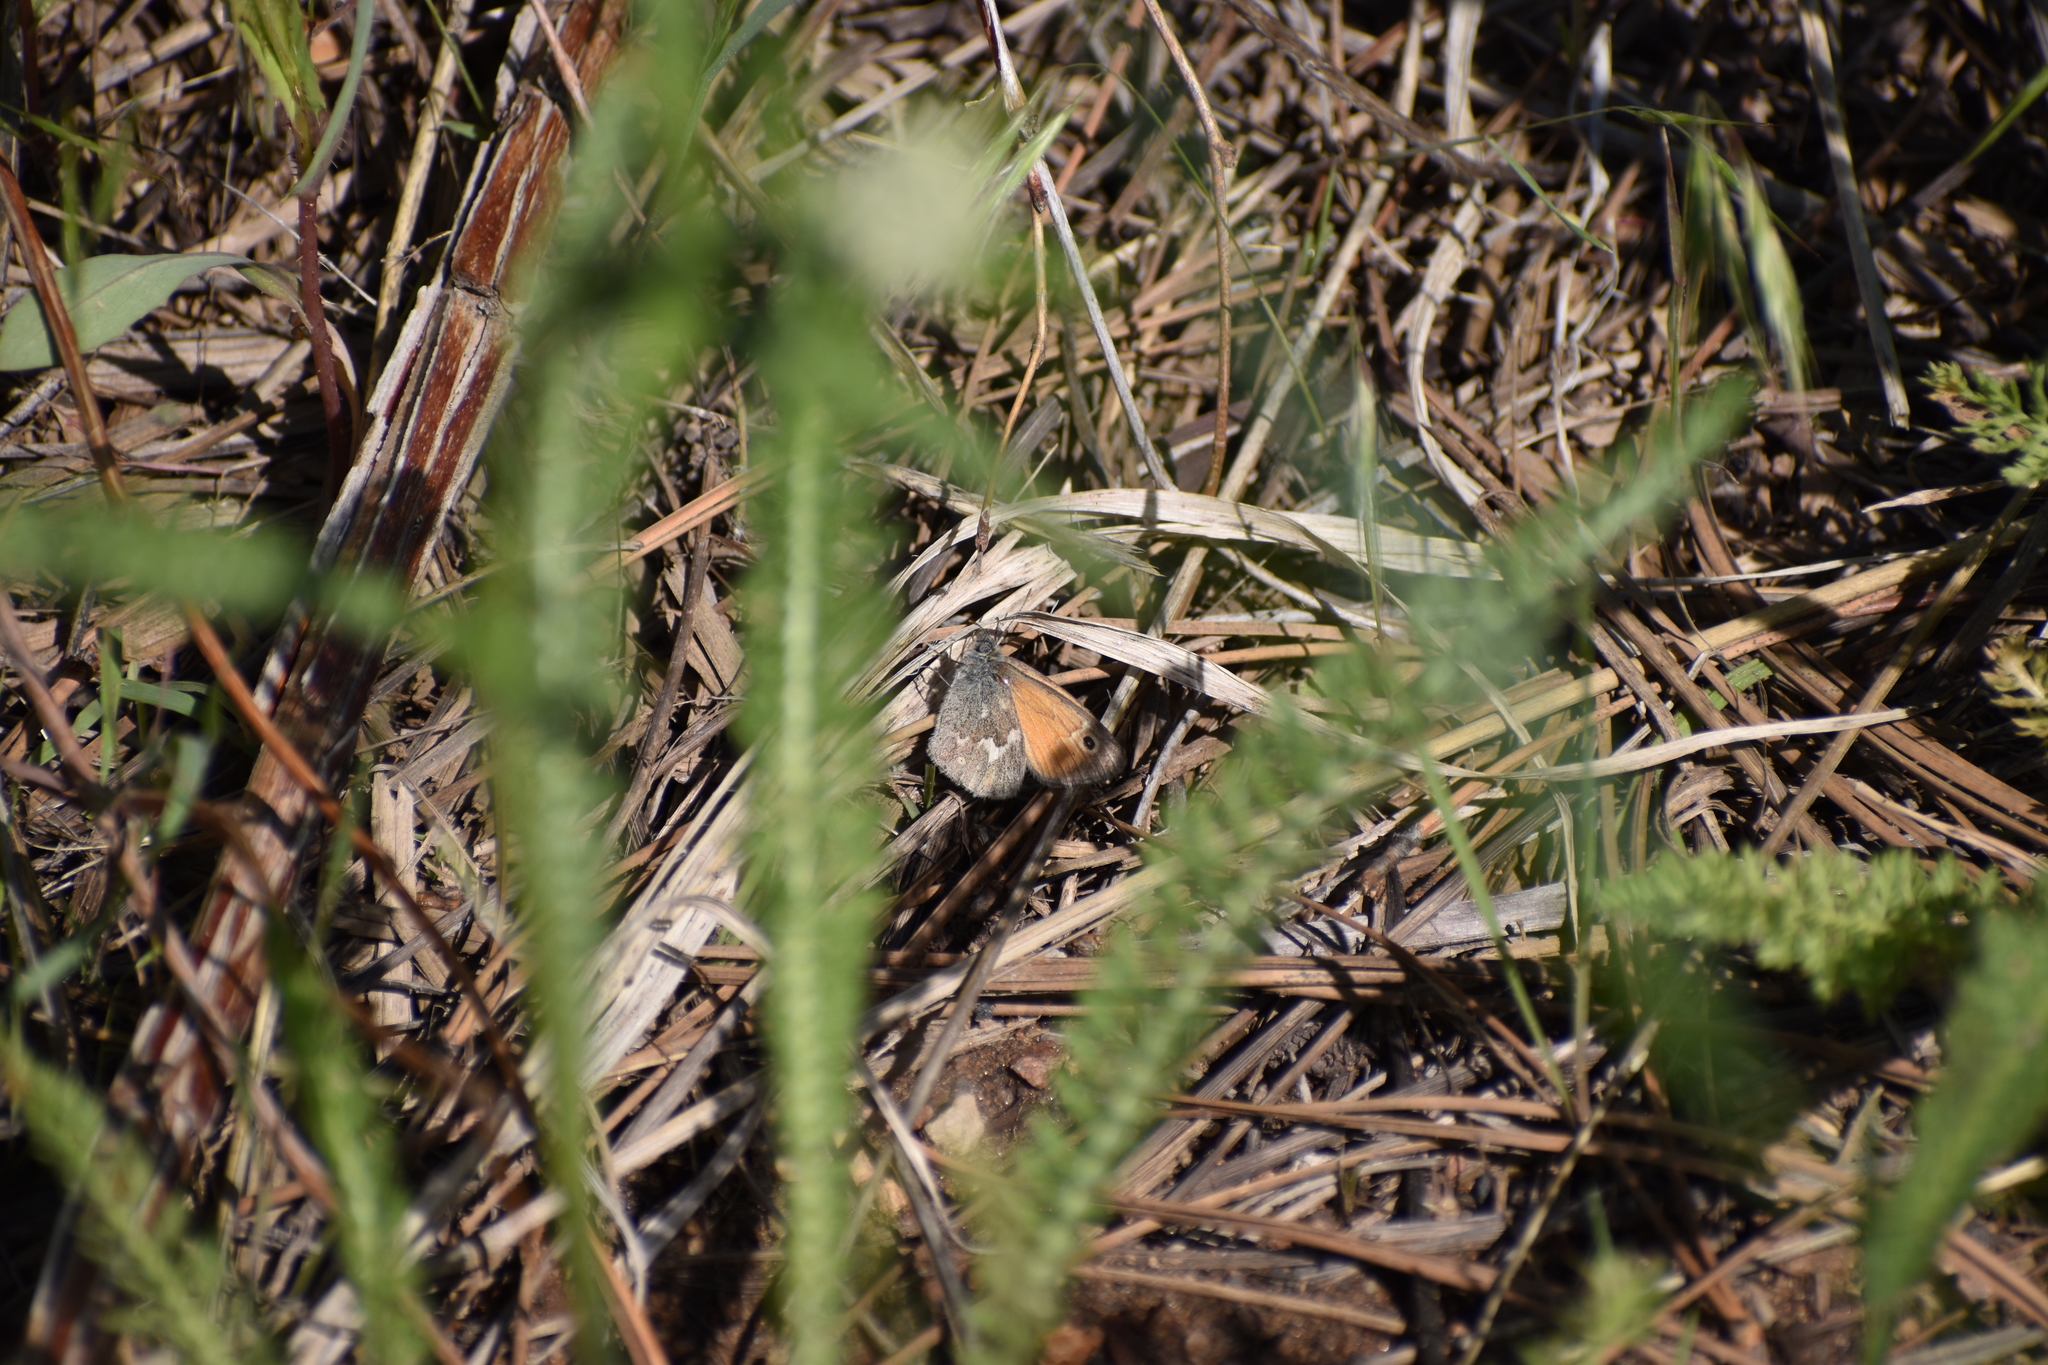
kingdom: Animalia
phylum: Arthropoda
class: Insecta
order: Lepidoptera
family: Nymphalidae
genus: Coenonympha
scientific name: Coenonympha california
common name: Common ringlet
